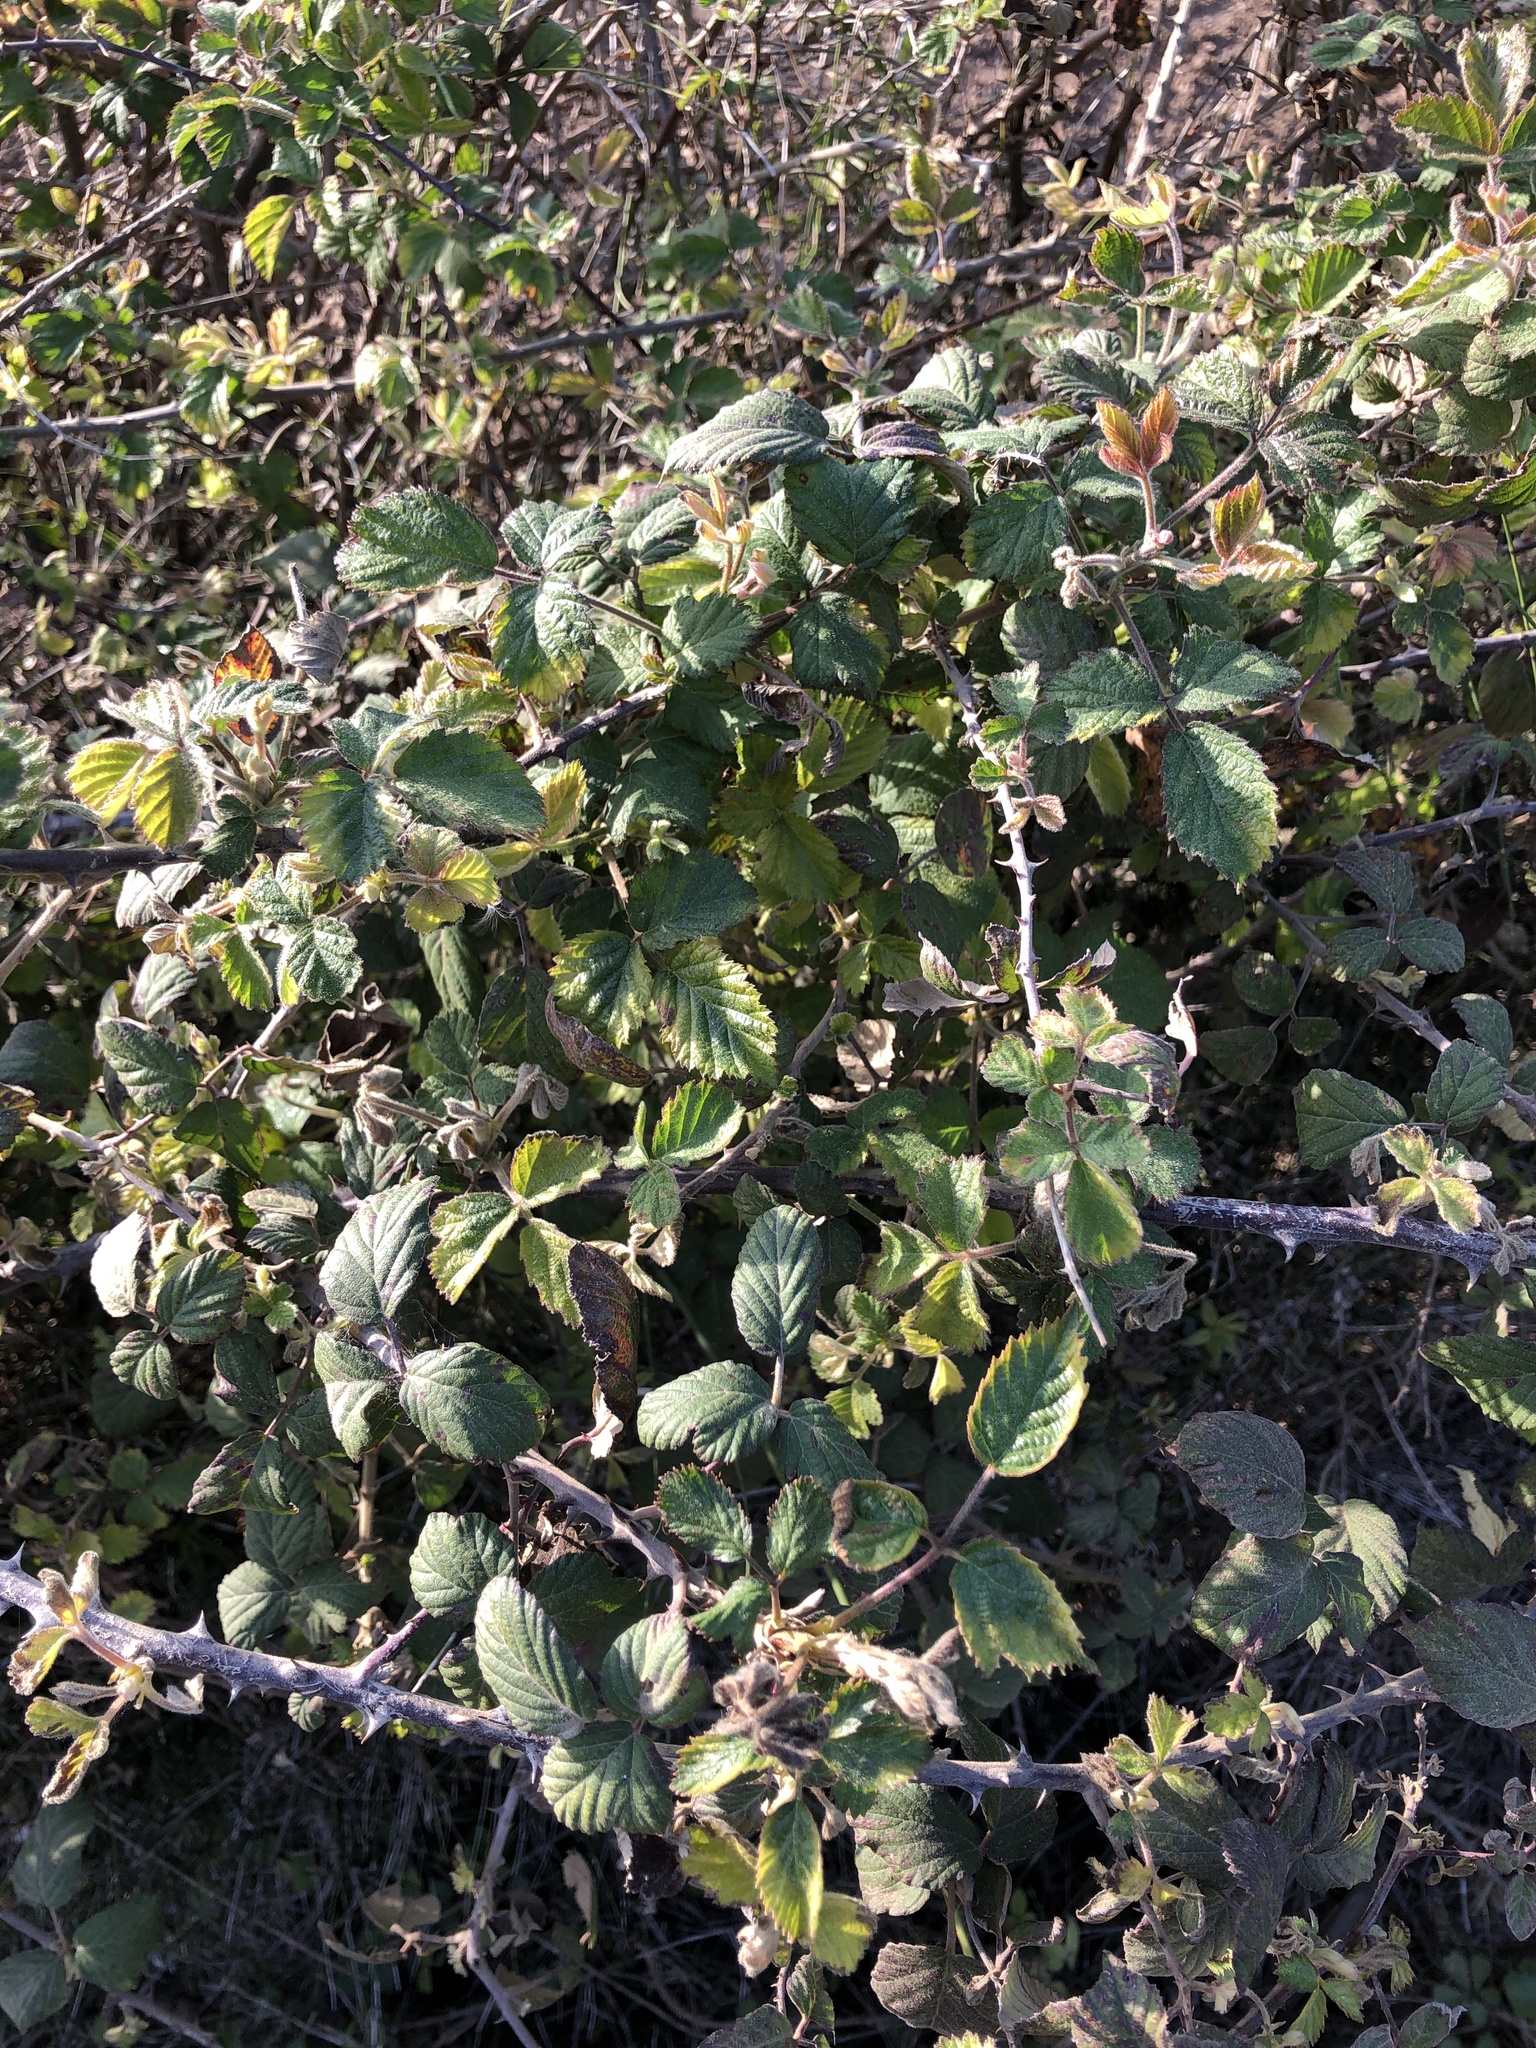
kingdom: Plantae
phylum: Tracheophyta
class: Magnoliopsida
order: Rosales
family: Rosaceae
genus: Rubus
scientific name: Rubus ulmifolius
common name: Elmleaf blackberry
